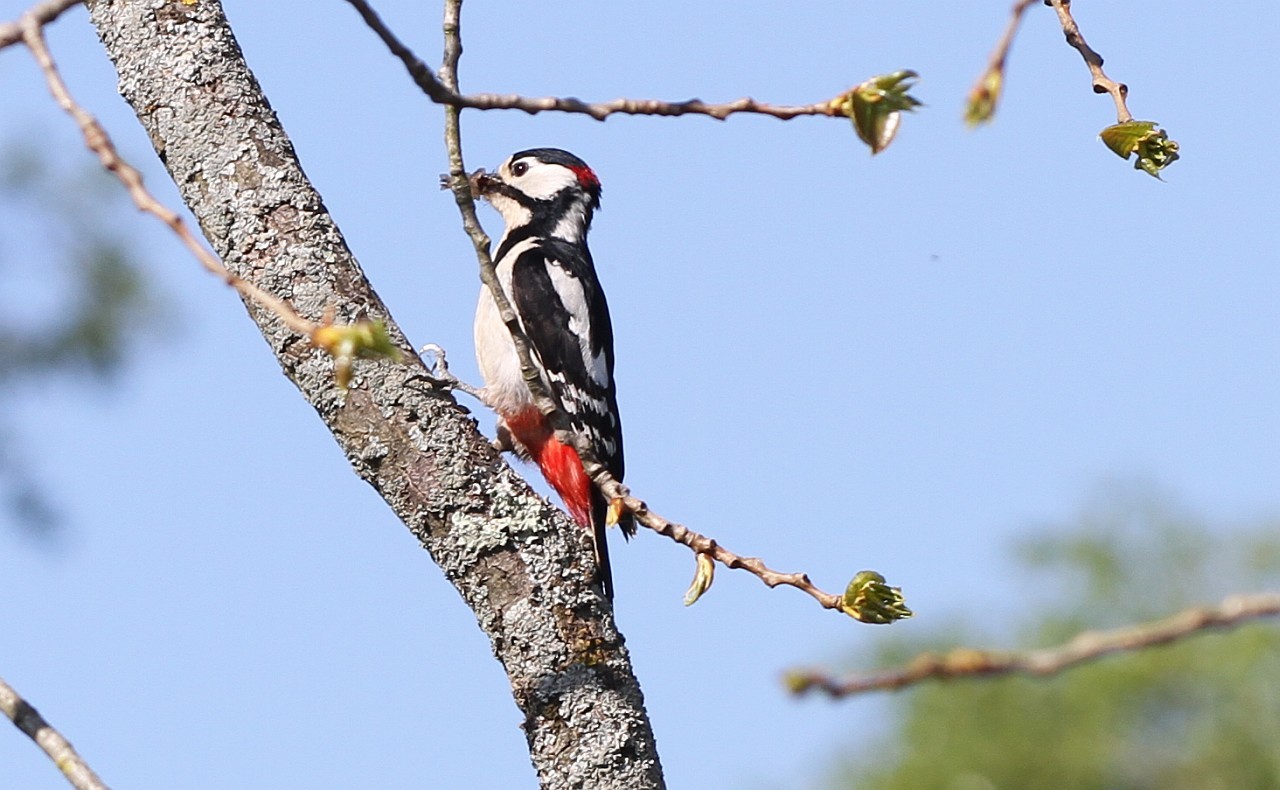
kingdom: Animalia
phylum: Chordata
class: Aves
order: Piciformes
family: Picidae
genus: Dendrocopos
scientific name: Dendrocopos major
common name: Great spotted woodpecker
